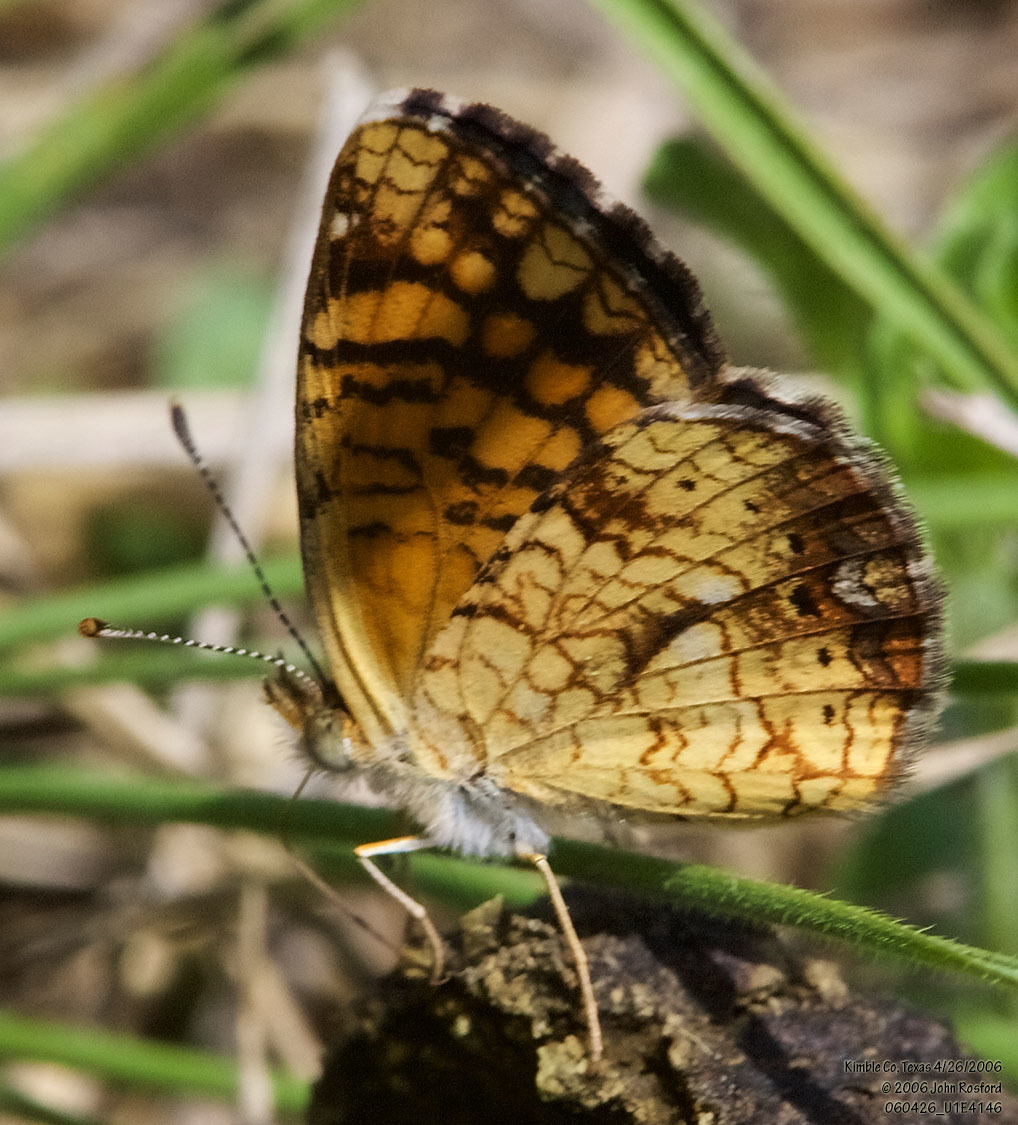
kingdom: Animalia
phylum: Arthropoda
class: Insecta
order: Lepidoptera
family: Nymphalidae
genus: Phyciodes
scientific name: Phyciodes vesta
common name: Vesta crescent
